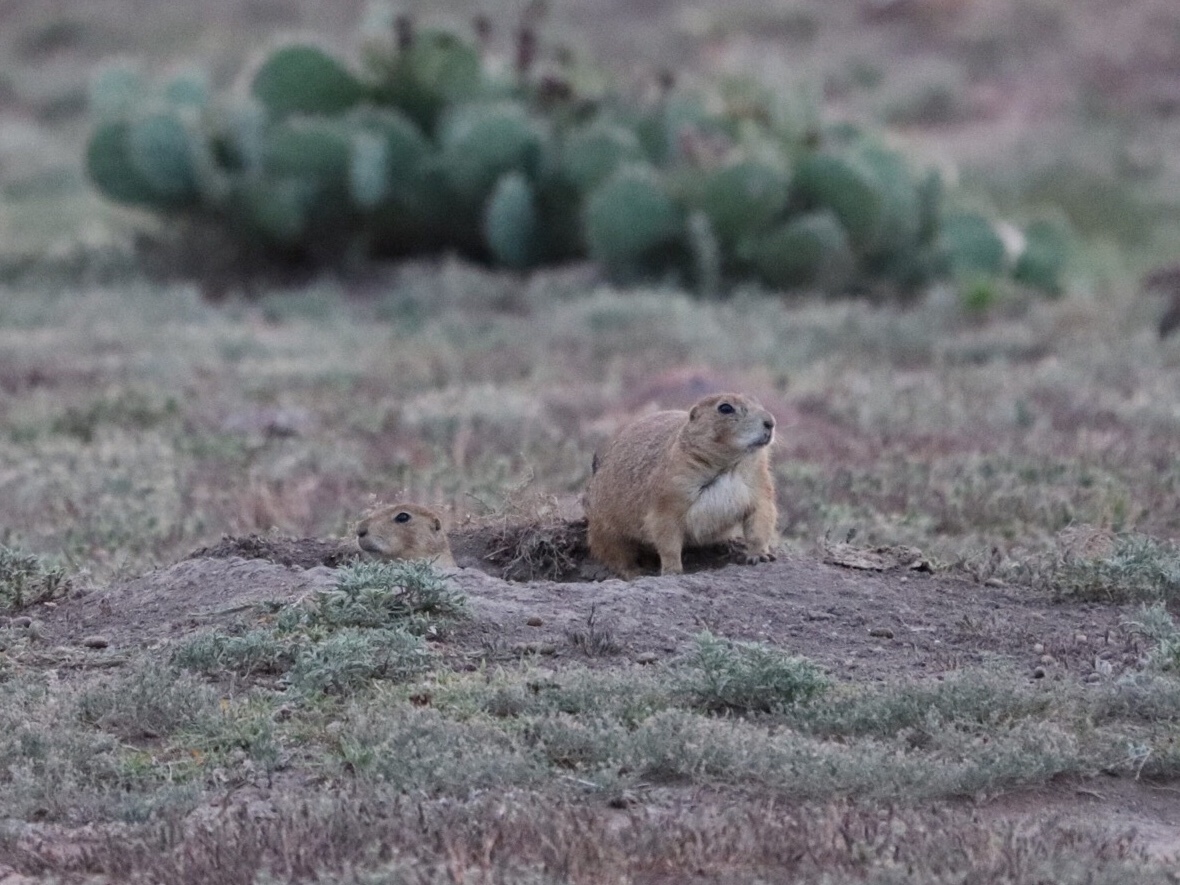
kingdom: Animalia
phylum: Chordata
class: Mammalia
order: Rodentia
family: Sciuridae
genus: Cynomys
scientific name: Cynomys ludovicianus
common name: Black-tailed prairie dog
